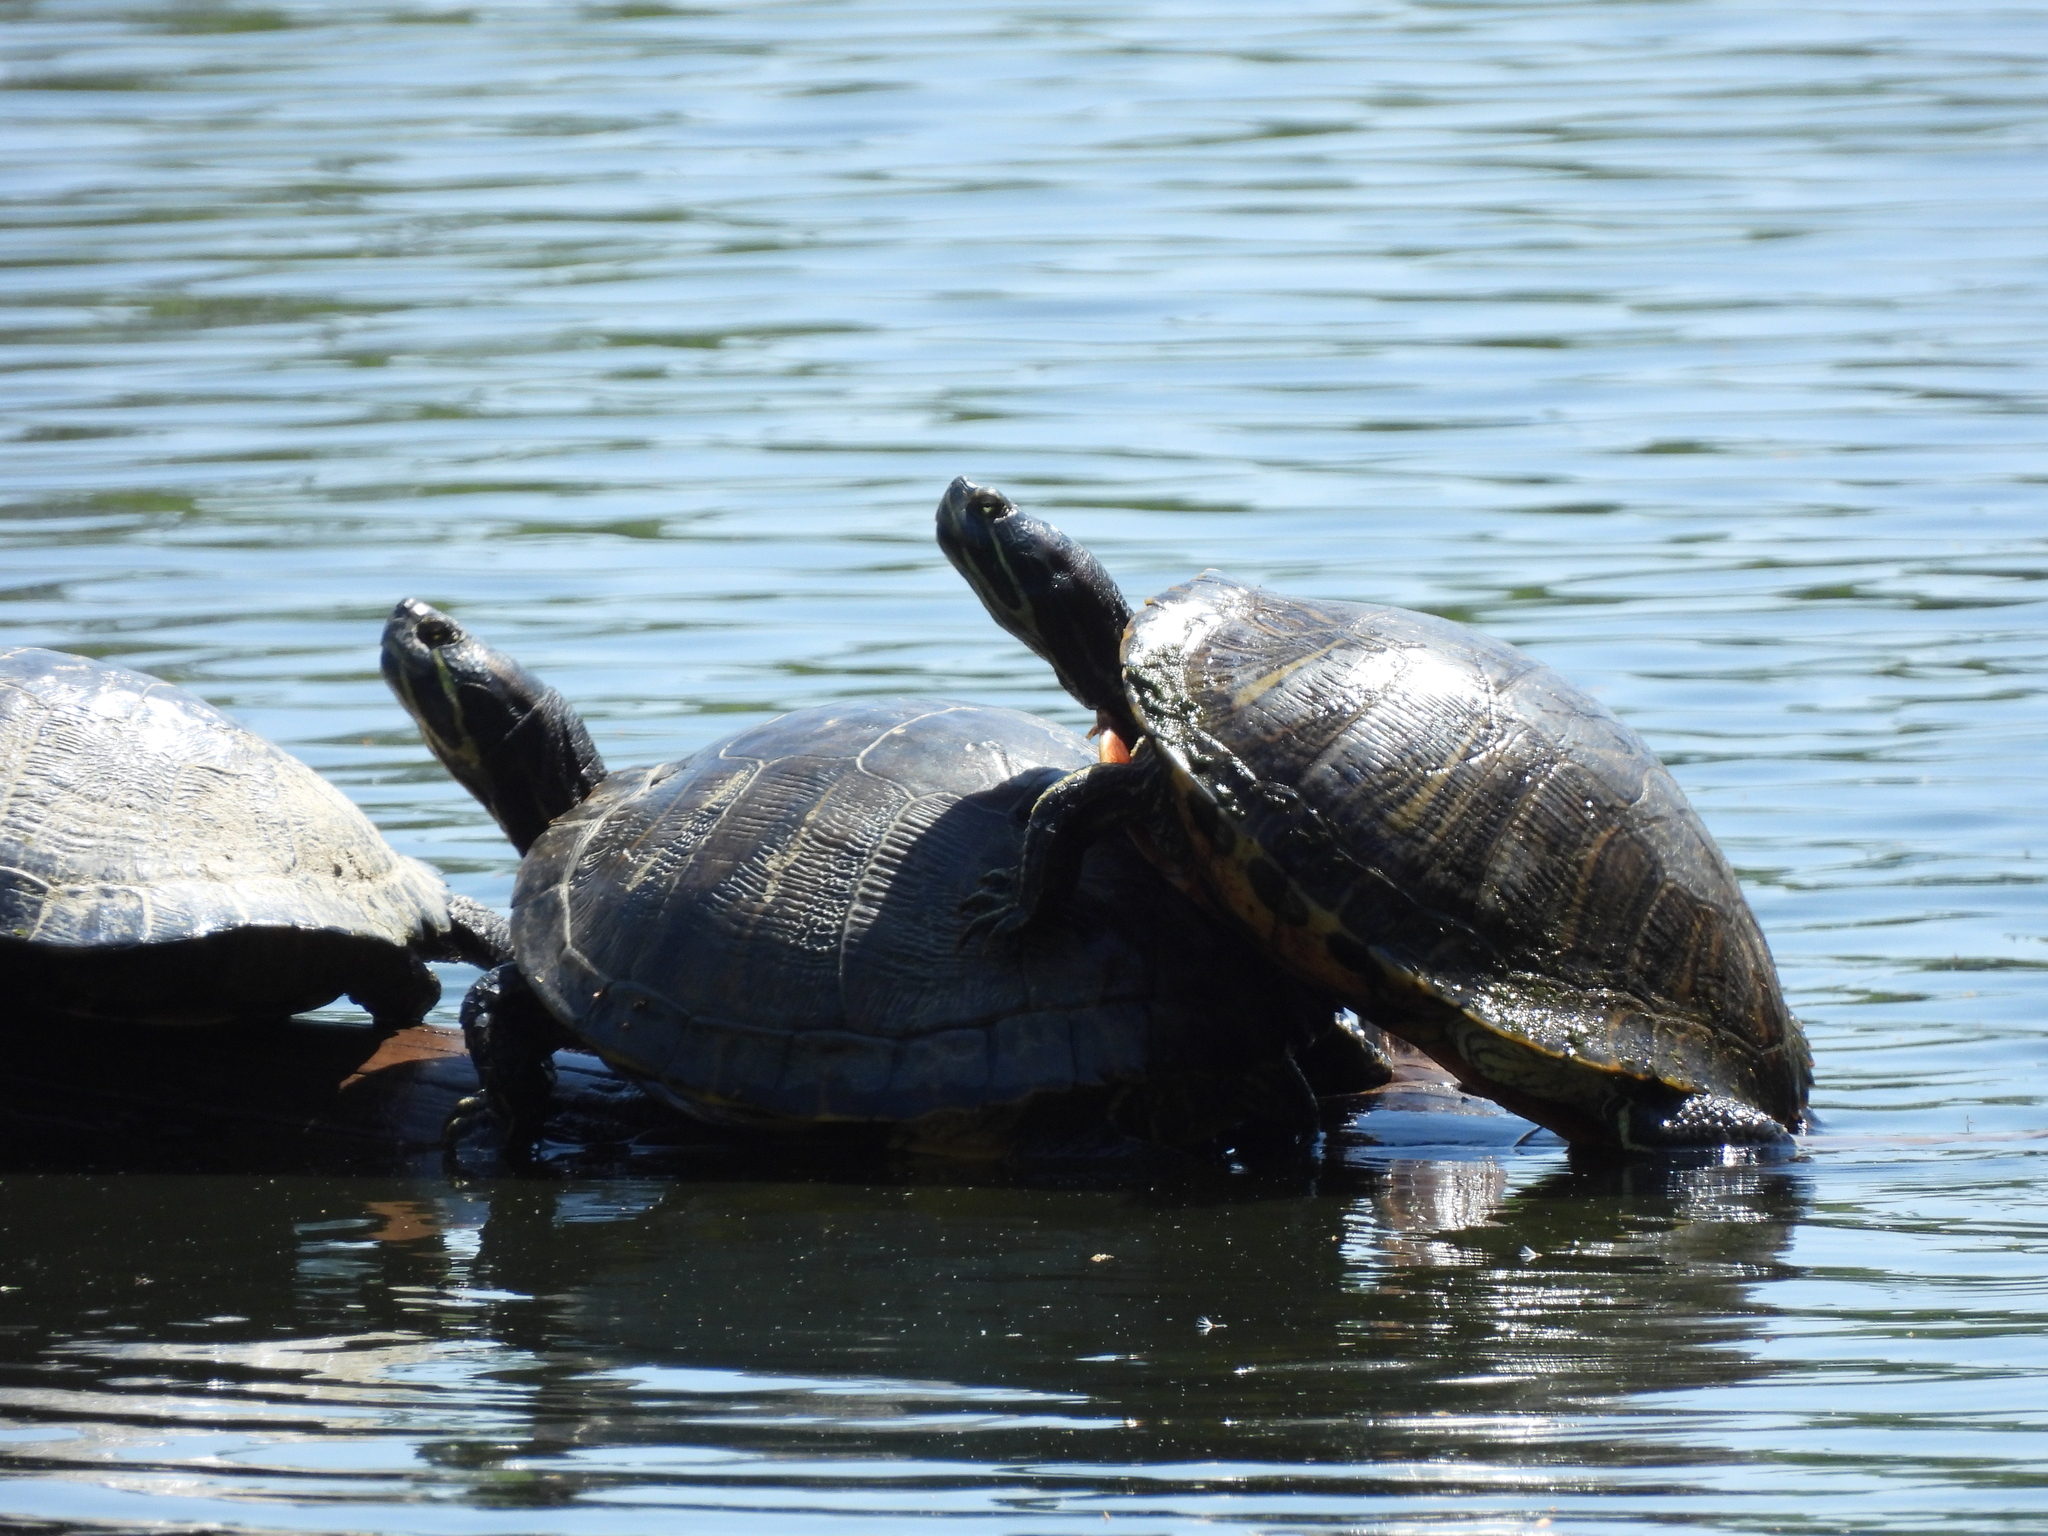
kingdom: Animalia
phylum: Chordata
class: Testudines
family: Emydidae
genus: Trachemys
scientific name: Trachemys scripta
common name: Slider
